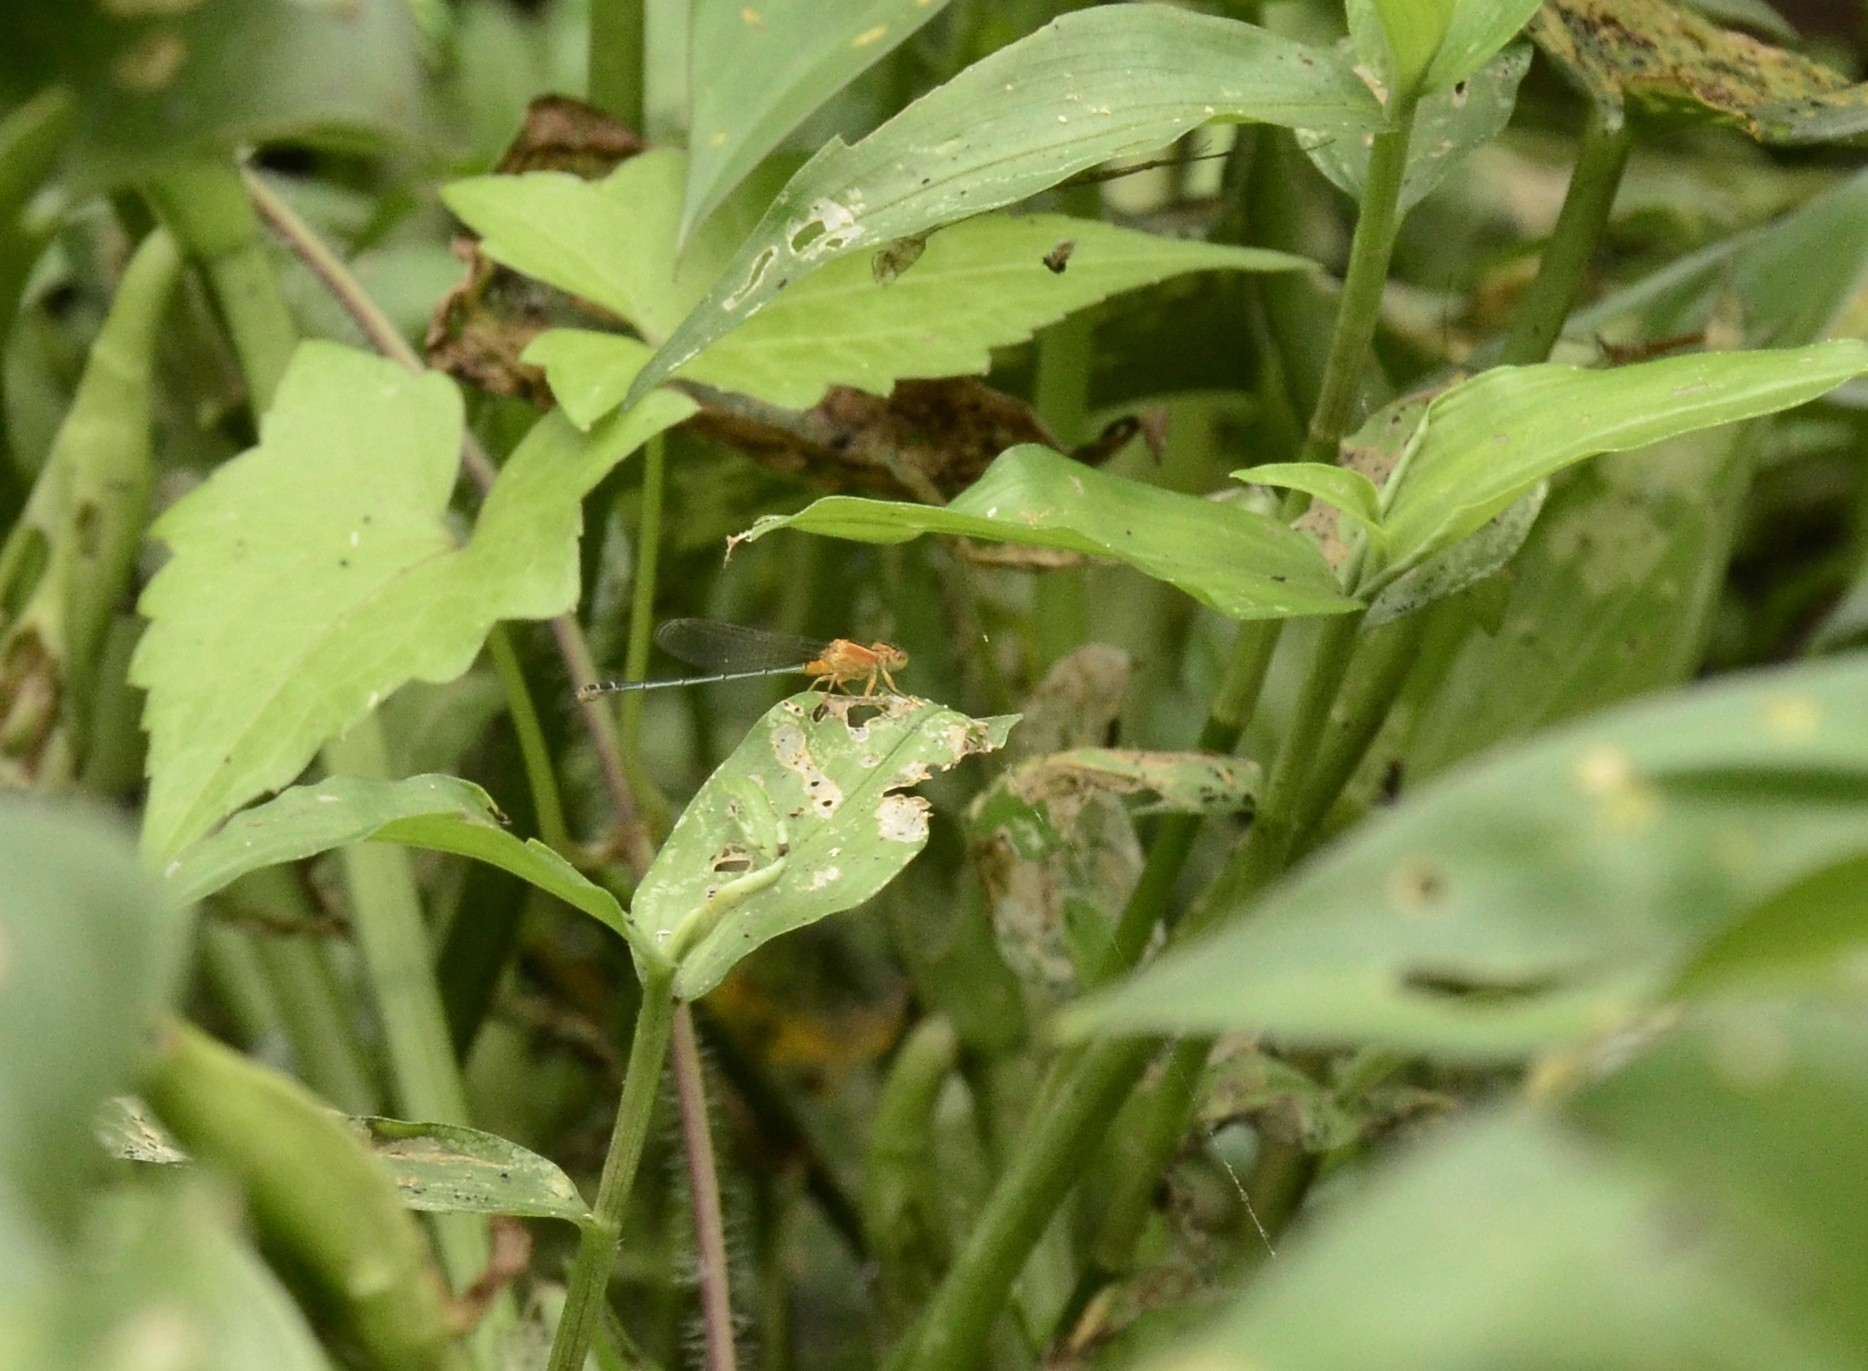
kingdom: Animalia
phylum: Arthropoda
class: Insecta
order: Odonata
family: Coenagrionidae
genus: Ischnura
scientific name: Ischnura senegalensis
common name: Tropical bluetail
